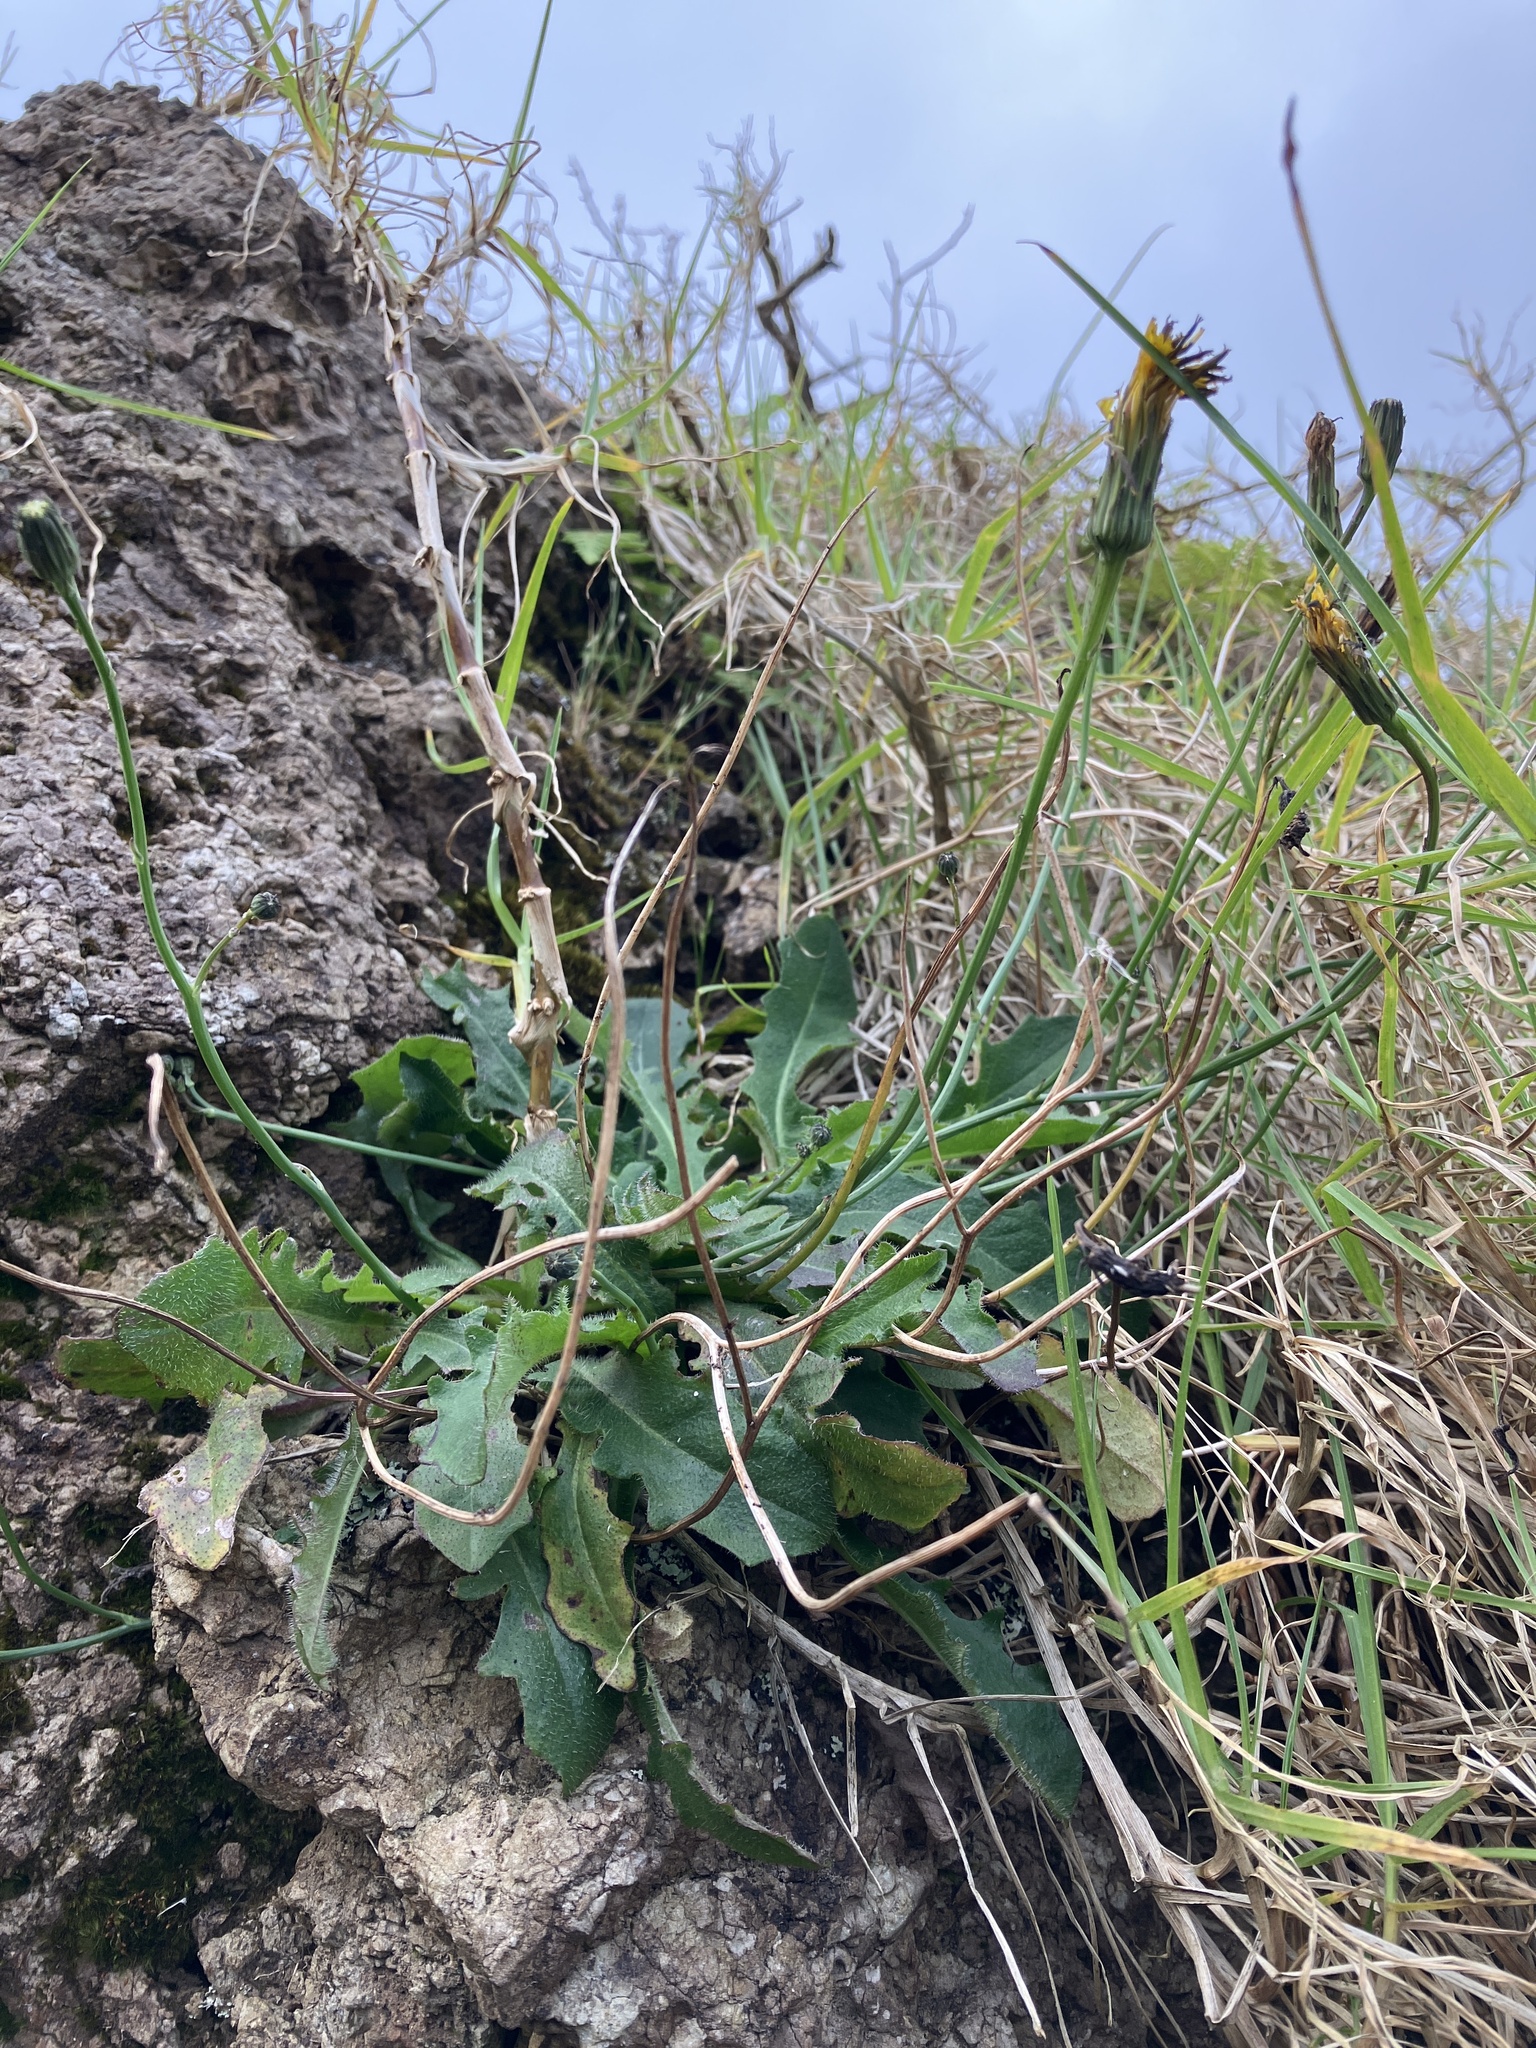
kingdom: Plantae
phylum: Tracheophyta
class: Magnoliopsida
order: Asterales
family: Asteraceae
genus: Hypochaeris
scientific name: Hypochaeris radicata
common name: Flatweed
